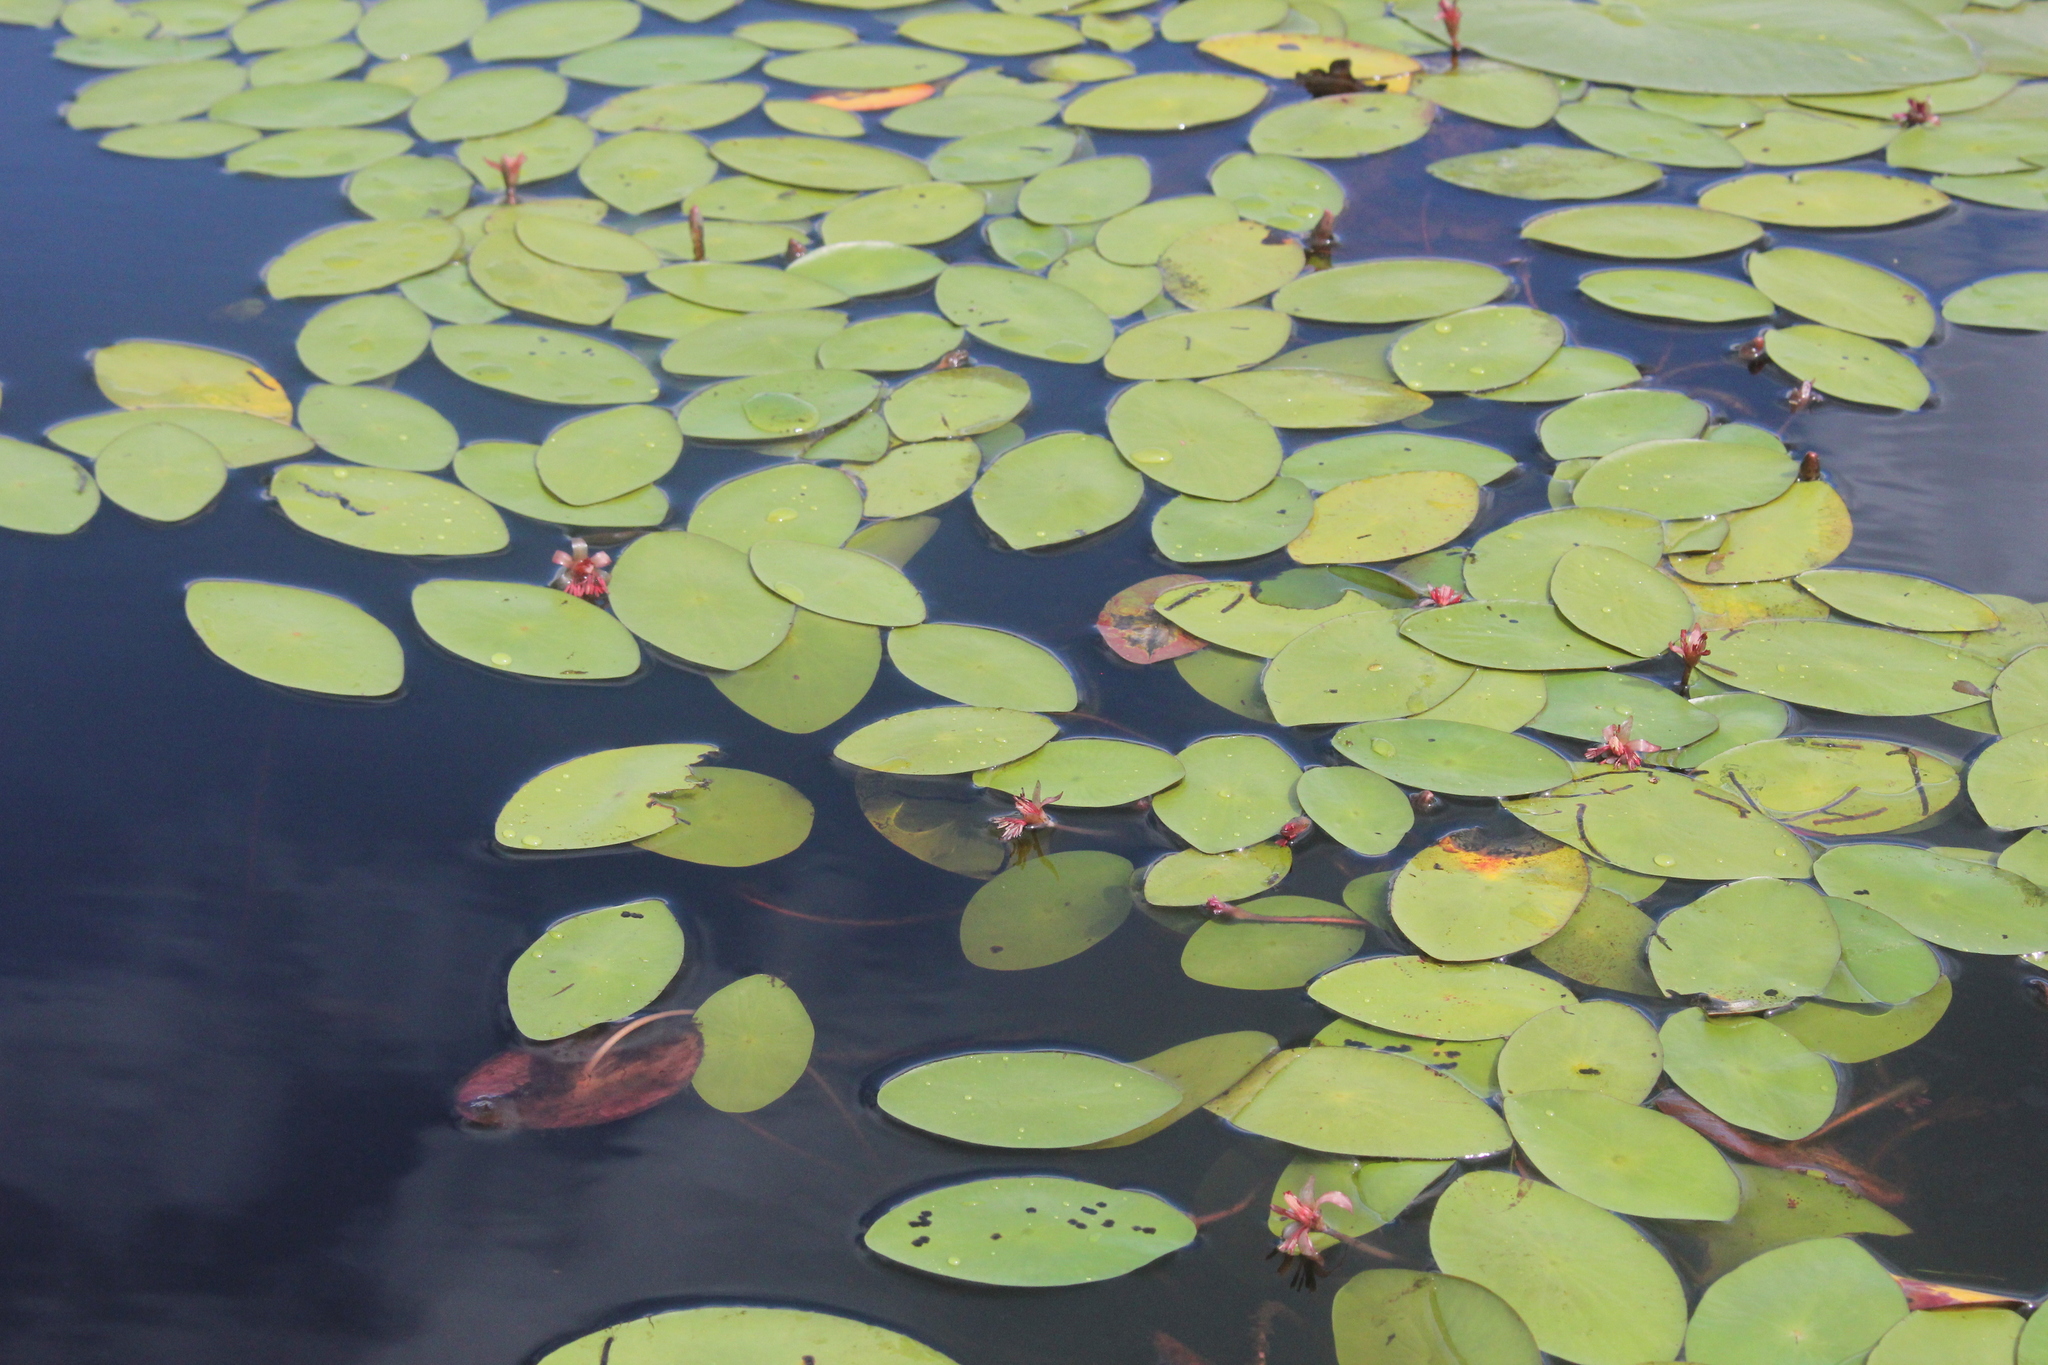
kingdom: Plantae
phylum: Tracheophyta
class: Magnoliopsida
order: Nymphaeales
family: Cabombaceae
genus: Brasenia
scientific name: Brasenia schreberi
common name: Water-shield
